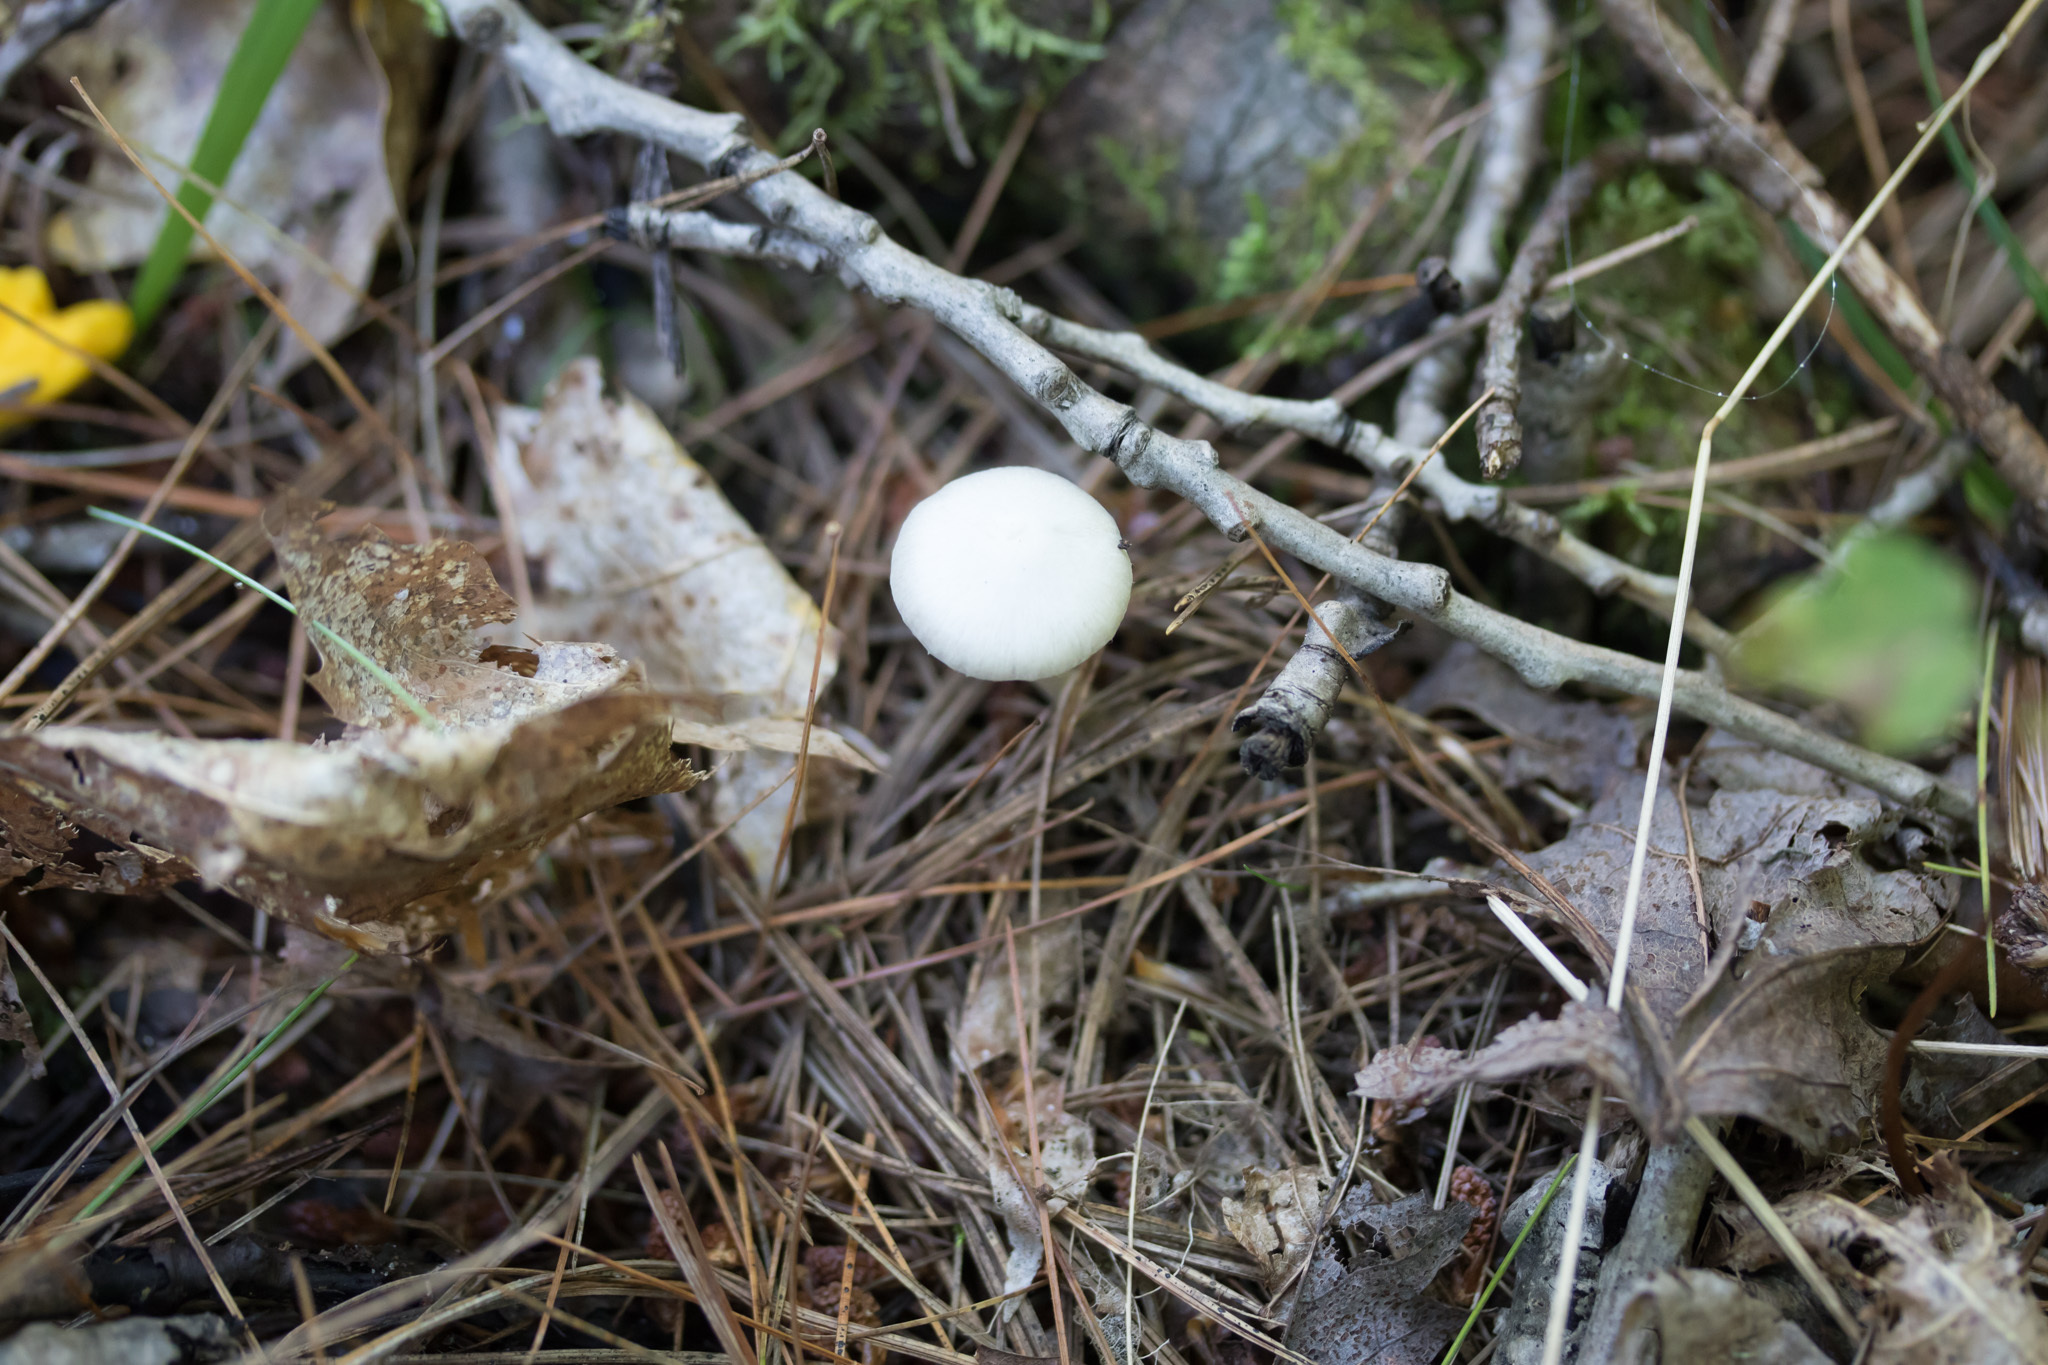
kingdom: Fungi
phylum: Basidiomycota
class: Agaricomycetes
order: Agaricales
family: Amanitaceae
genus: Amanita
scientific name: Amanita bisporigera
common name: Eastern north american destroying angel
